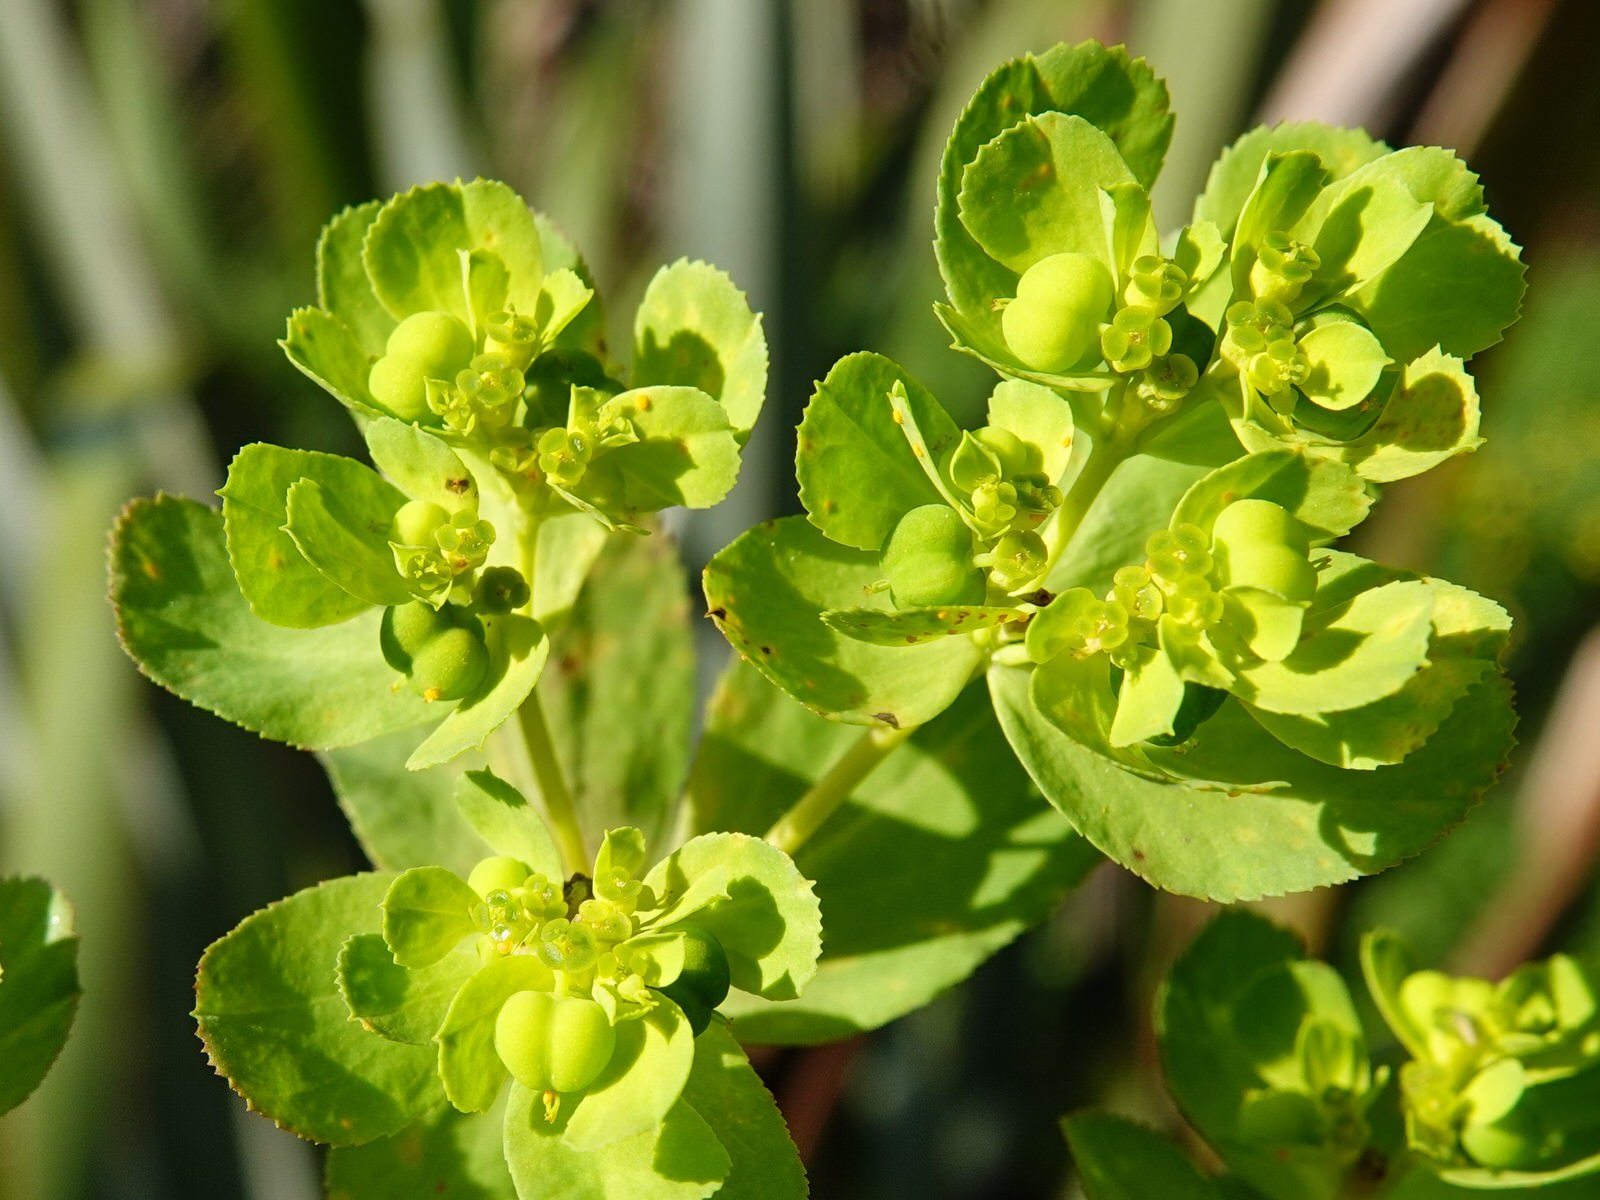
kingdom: Plantae
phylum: Tracheophyta
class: Magnoliopsida
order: Malpighiales
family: Euphorbiaceae
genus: Euphorbia
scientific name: Euphorbia helioscopia
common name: Sun spurge
